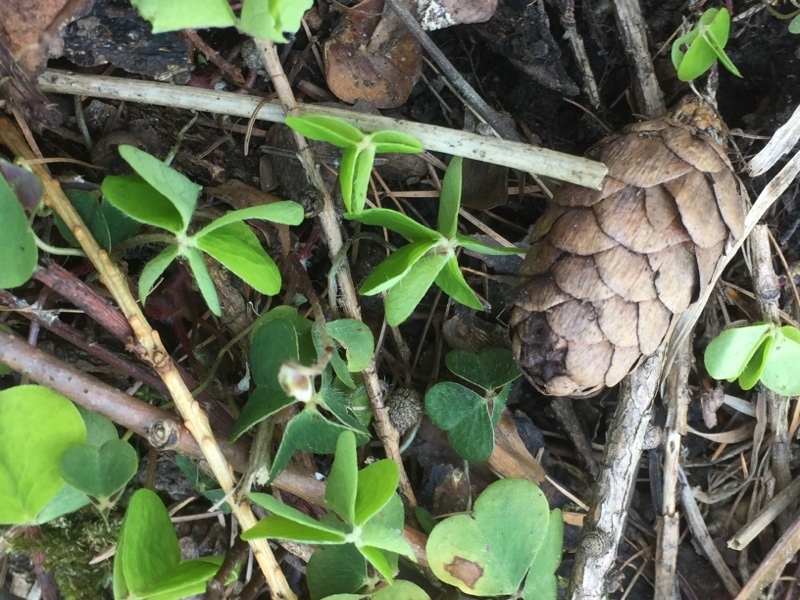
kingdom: Plantae
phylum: Tracheophyta
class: Magnoliopsida
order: Oxalidales
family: Oxalidaceae
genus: Oxalis
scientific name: Oxalis acetosella
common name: Wood-sorrel
